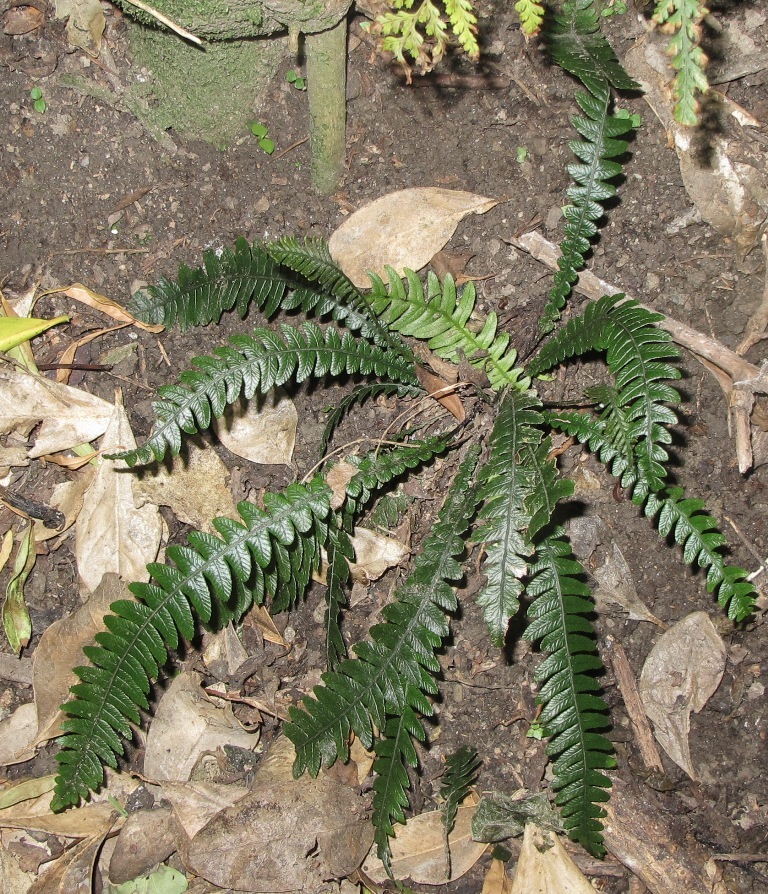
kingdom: Plantae
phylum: Tracheophyta
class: Polypodiopsida
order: Polypodiales
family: Blechnaceae
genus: Austroblechnum
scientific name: Austroblechnum lanceolatum
